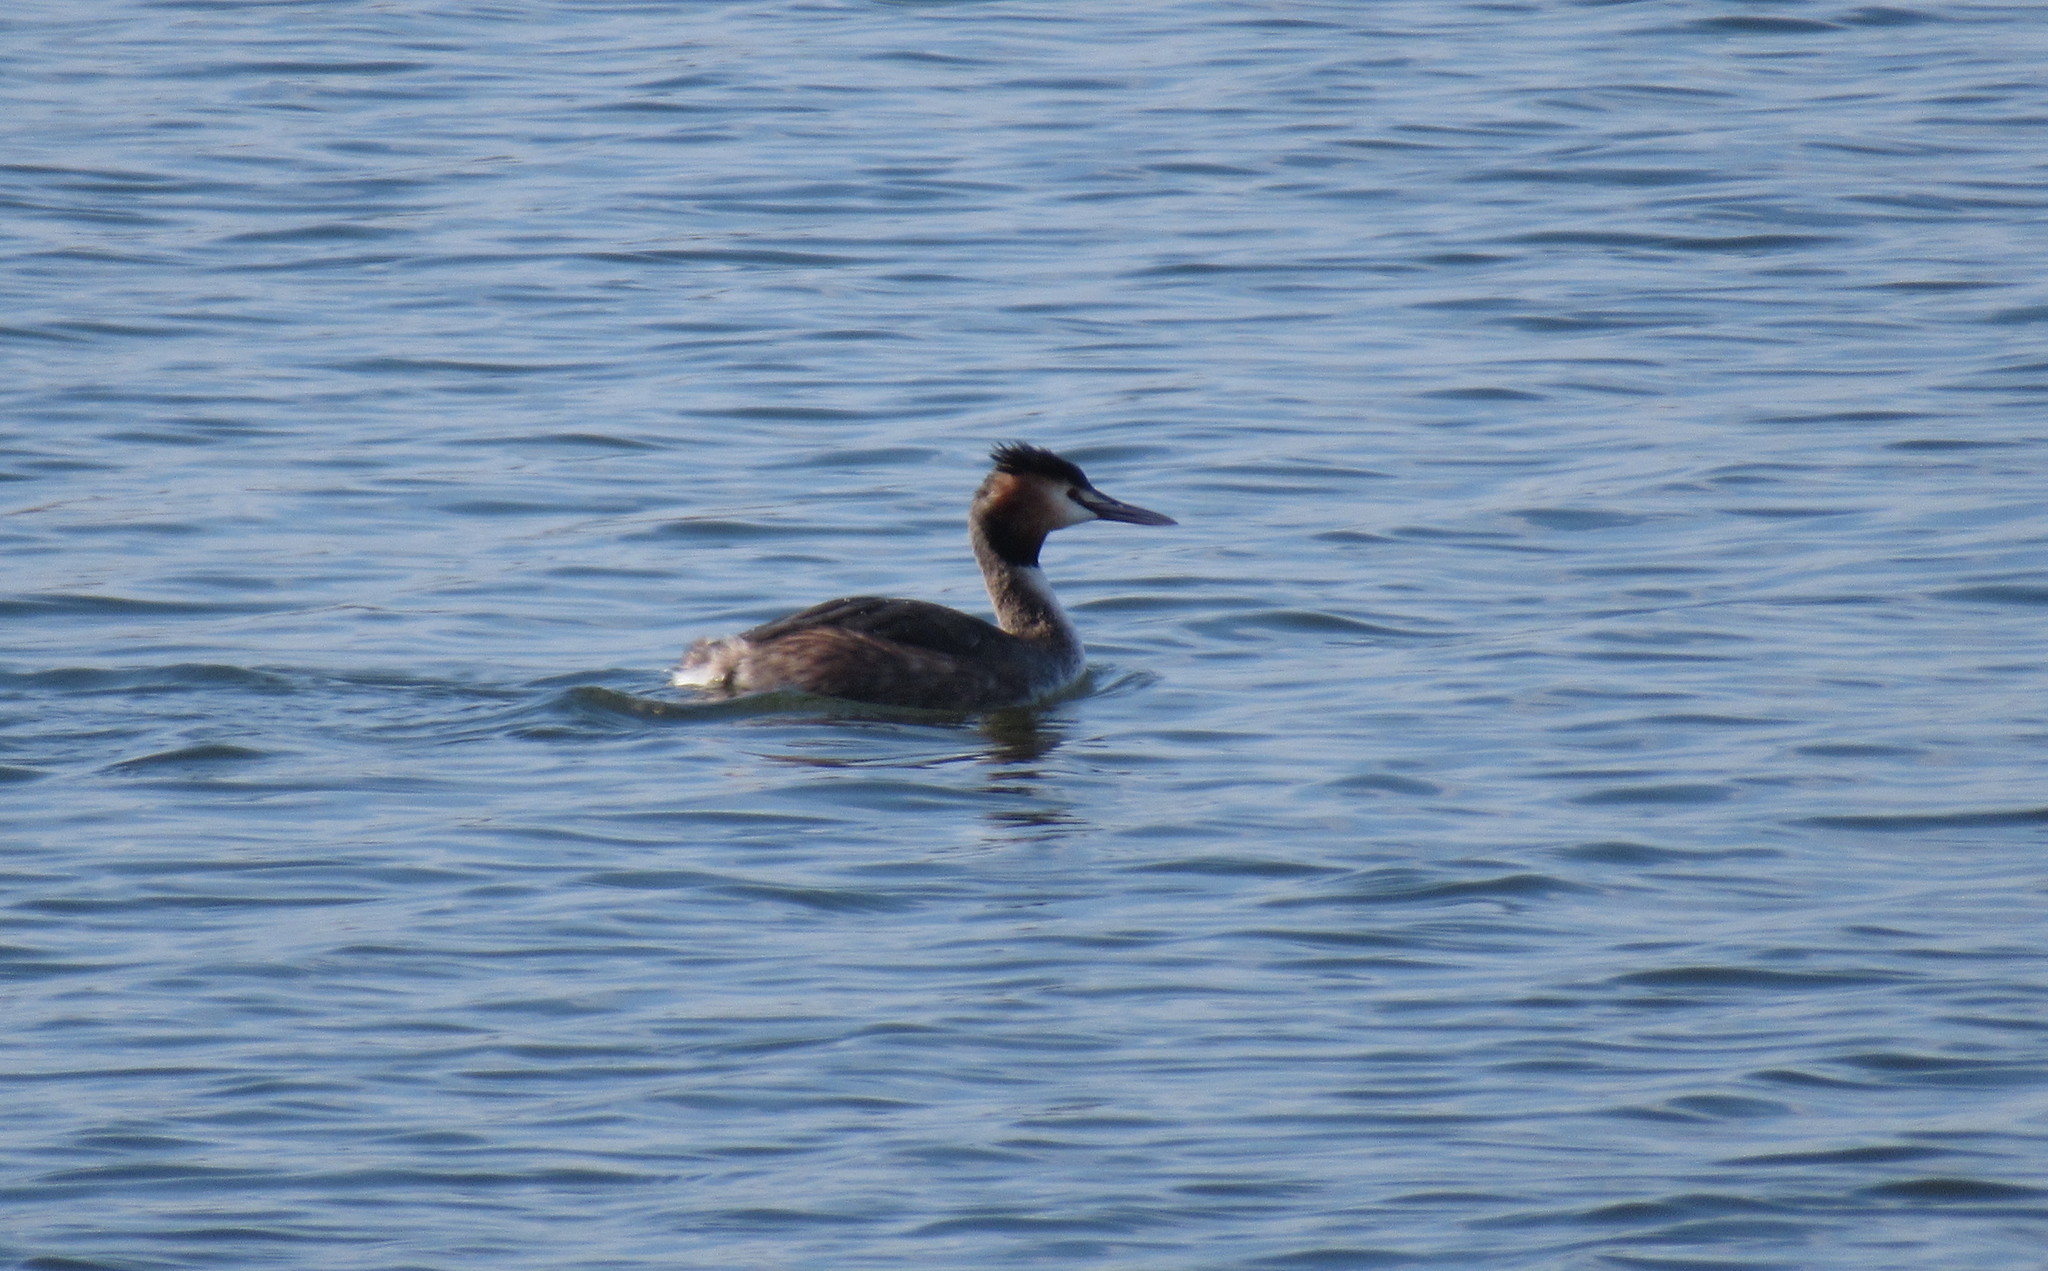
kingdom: Animalia
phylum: Chordata
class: Aves
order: Podicipediformes
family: Podicipedidae
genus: Podiceps
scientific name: Podiceps cristatus
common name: Great crested grebe
